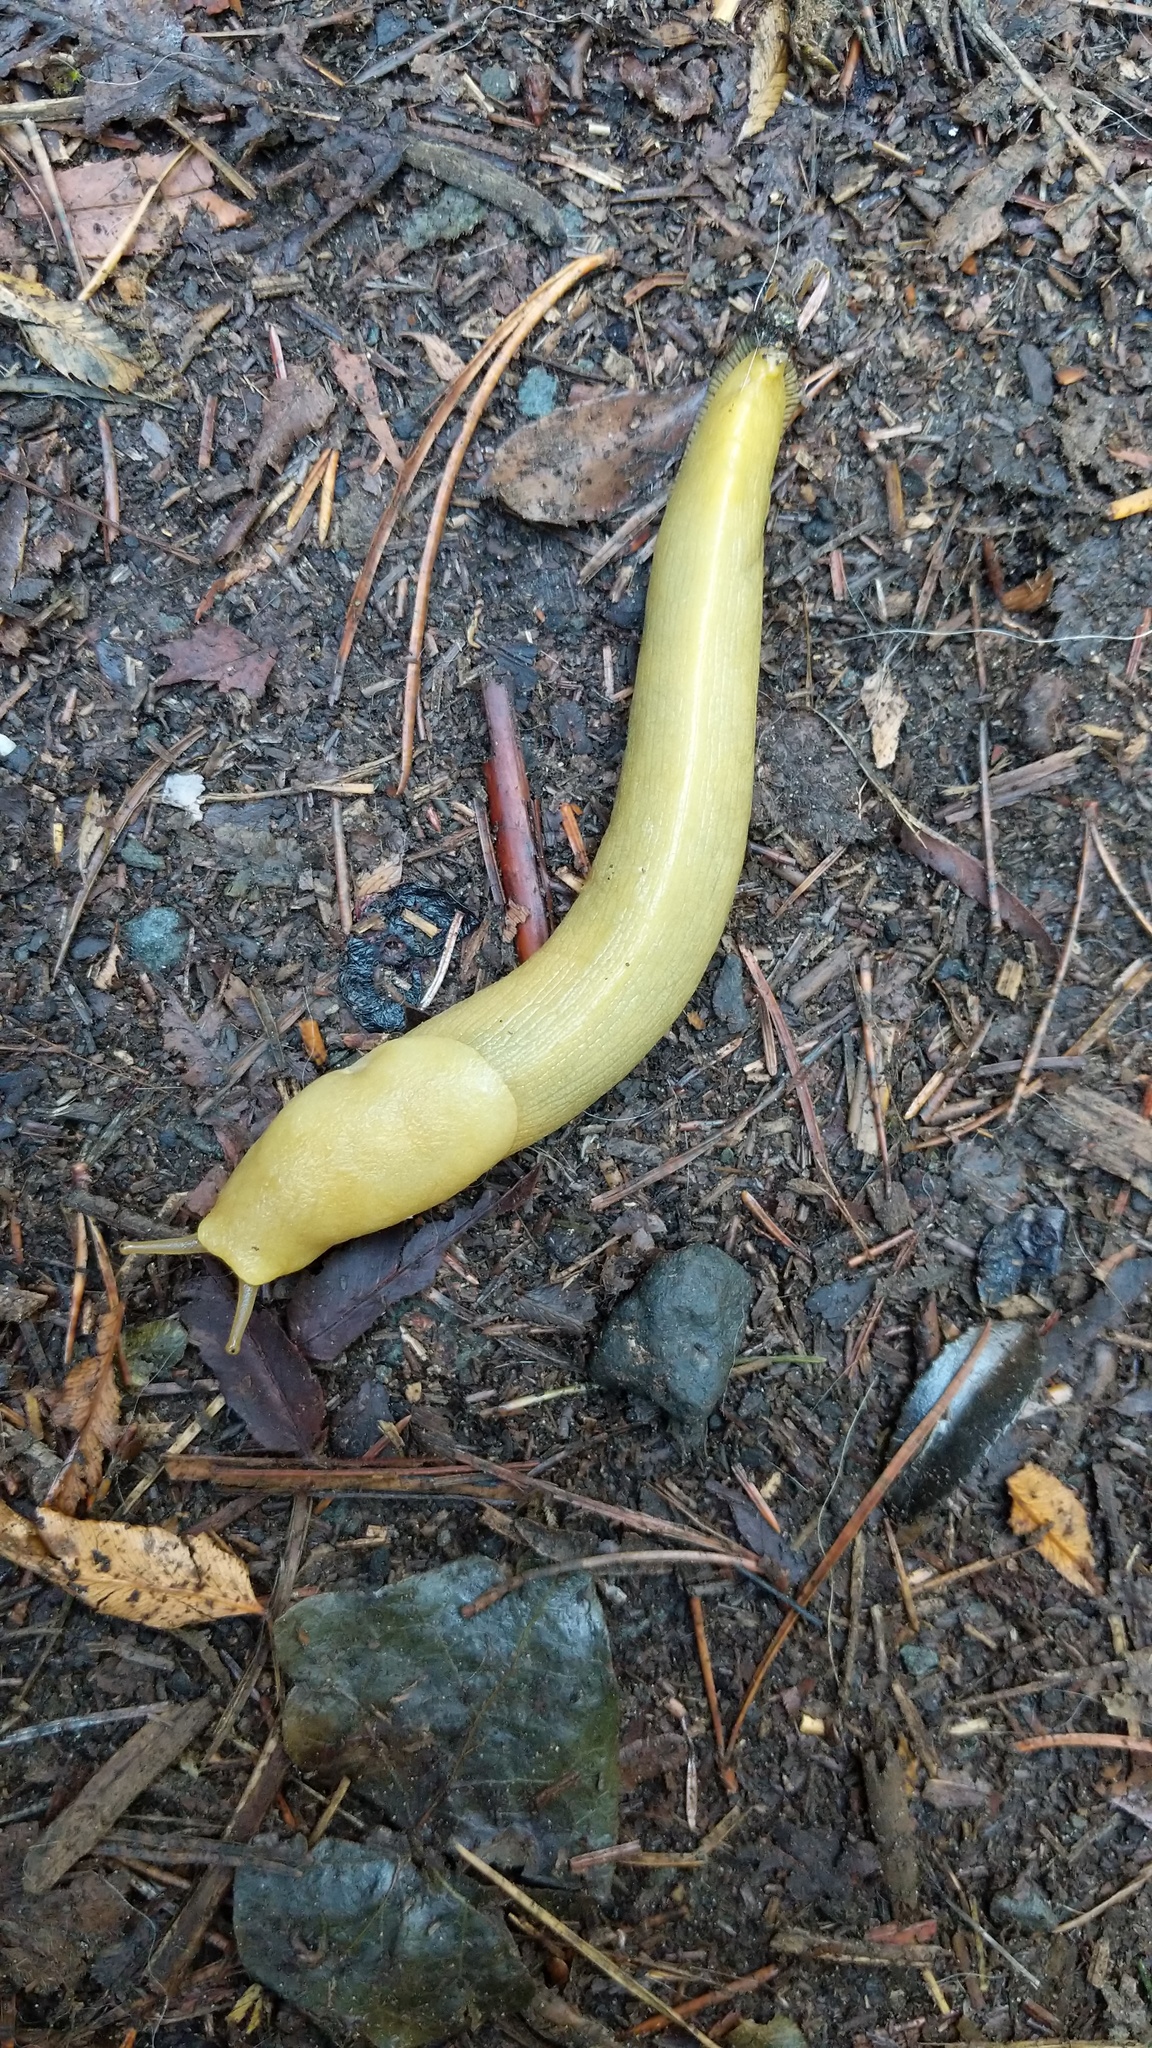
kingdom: Animalia
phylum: Mollusca
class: Gastropoda
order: Stylommatophora
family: Ariolimacidae
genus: Ariolimax
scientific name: Ariolimax columbianus
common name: Pacific banana slug
